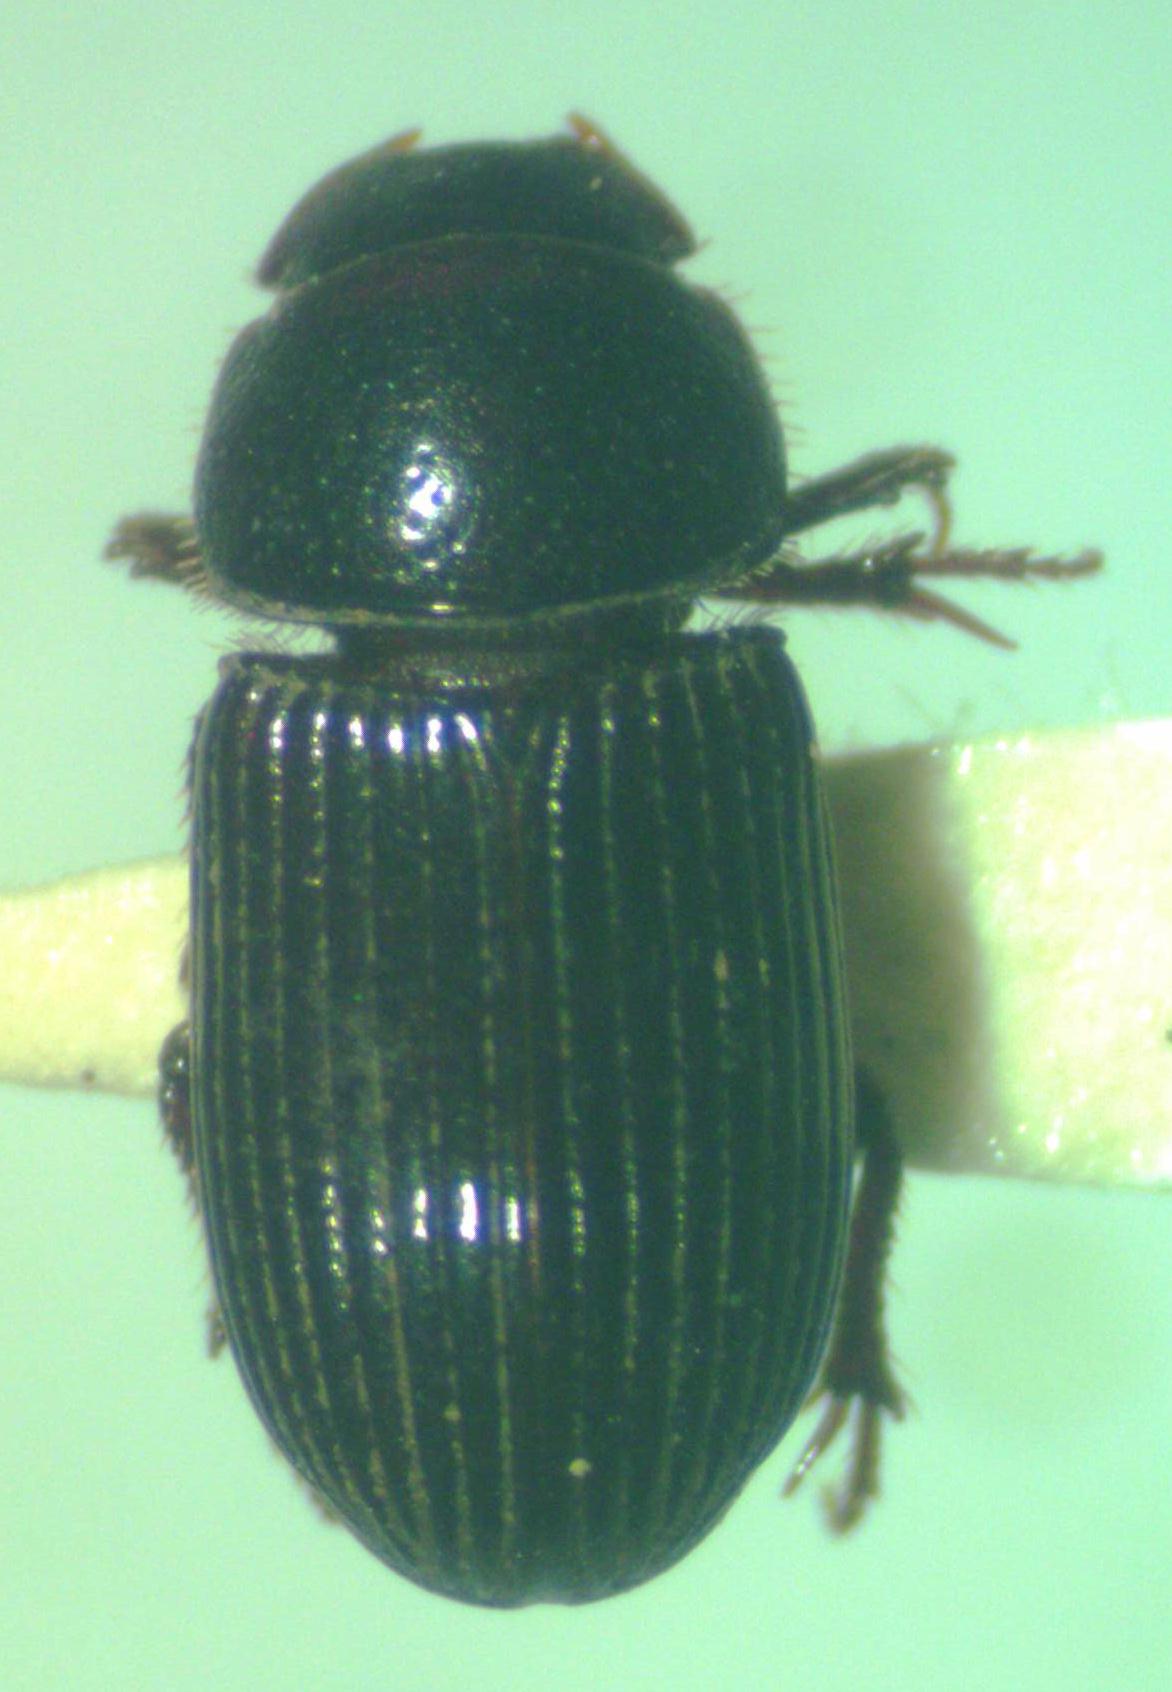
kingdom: Animalia
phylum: Arthropoda
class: Insecta
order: Coleoptera
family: Scarabaeidae
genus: Ataenius
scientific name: Ataenius liogaster
